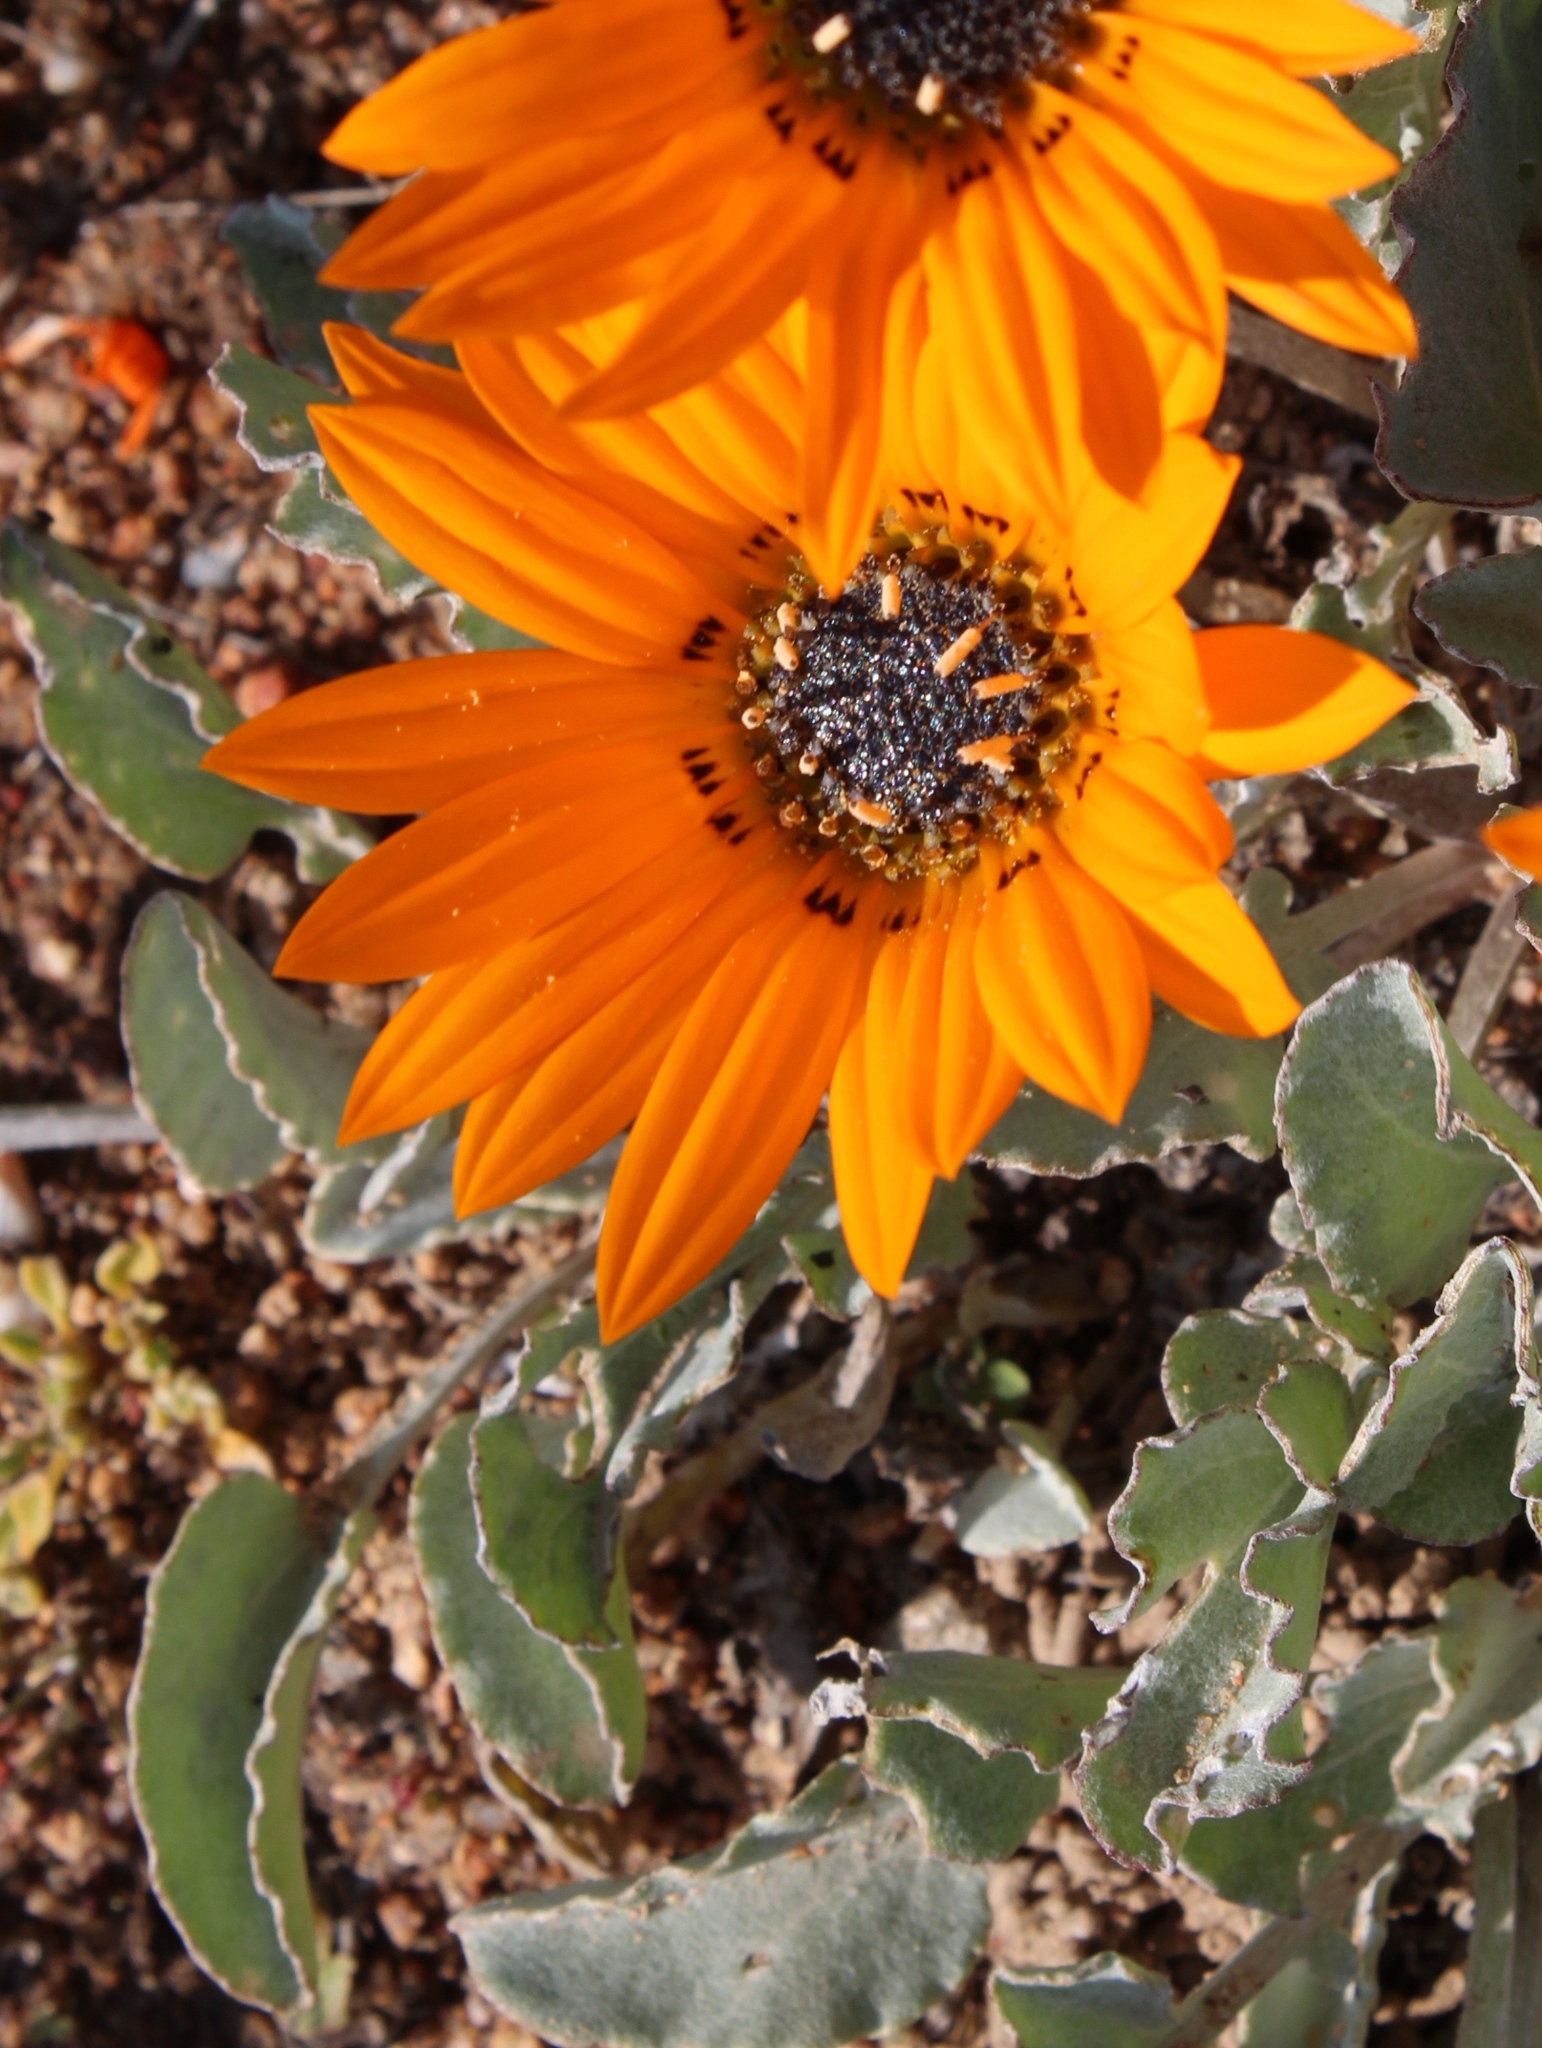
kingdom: Plantae
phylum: Tracheophyta
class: Magnoliopsida
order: Asterales
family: Asteraceae
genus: Arctotis
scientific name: Arctotis campanulata
